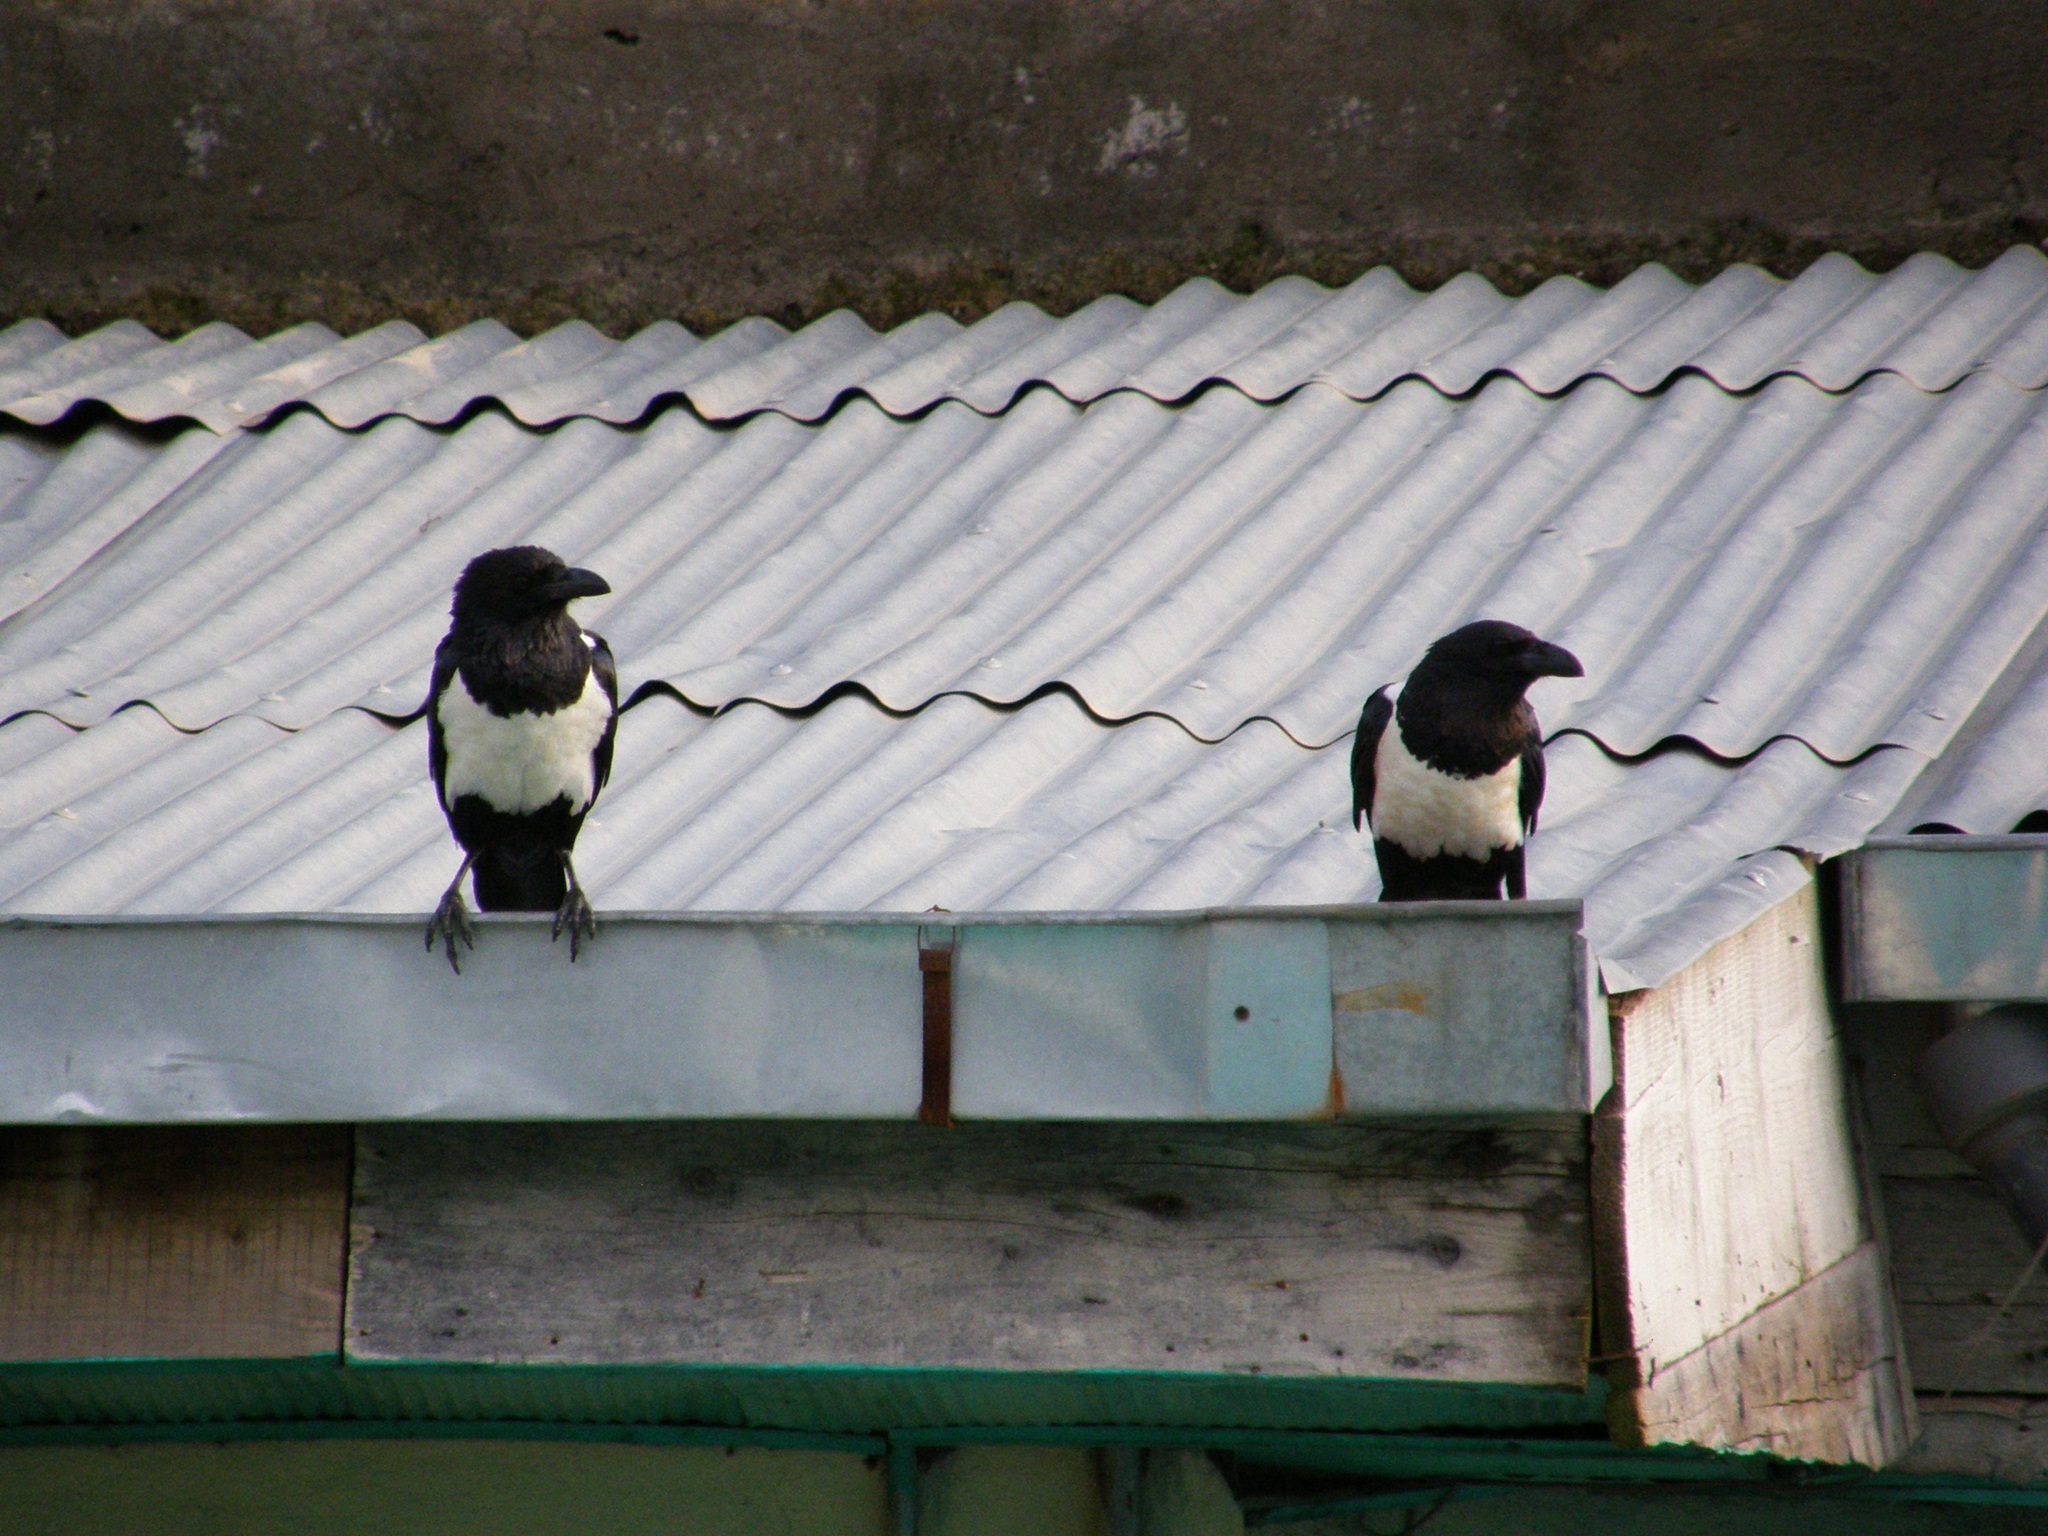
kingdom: Animalia
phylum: Chordata
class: Aves
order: Passeriformes
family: Corvidae
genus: Corvus
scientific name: Corvus albus
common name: Pied crow
